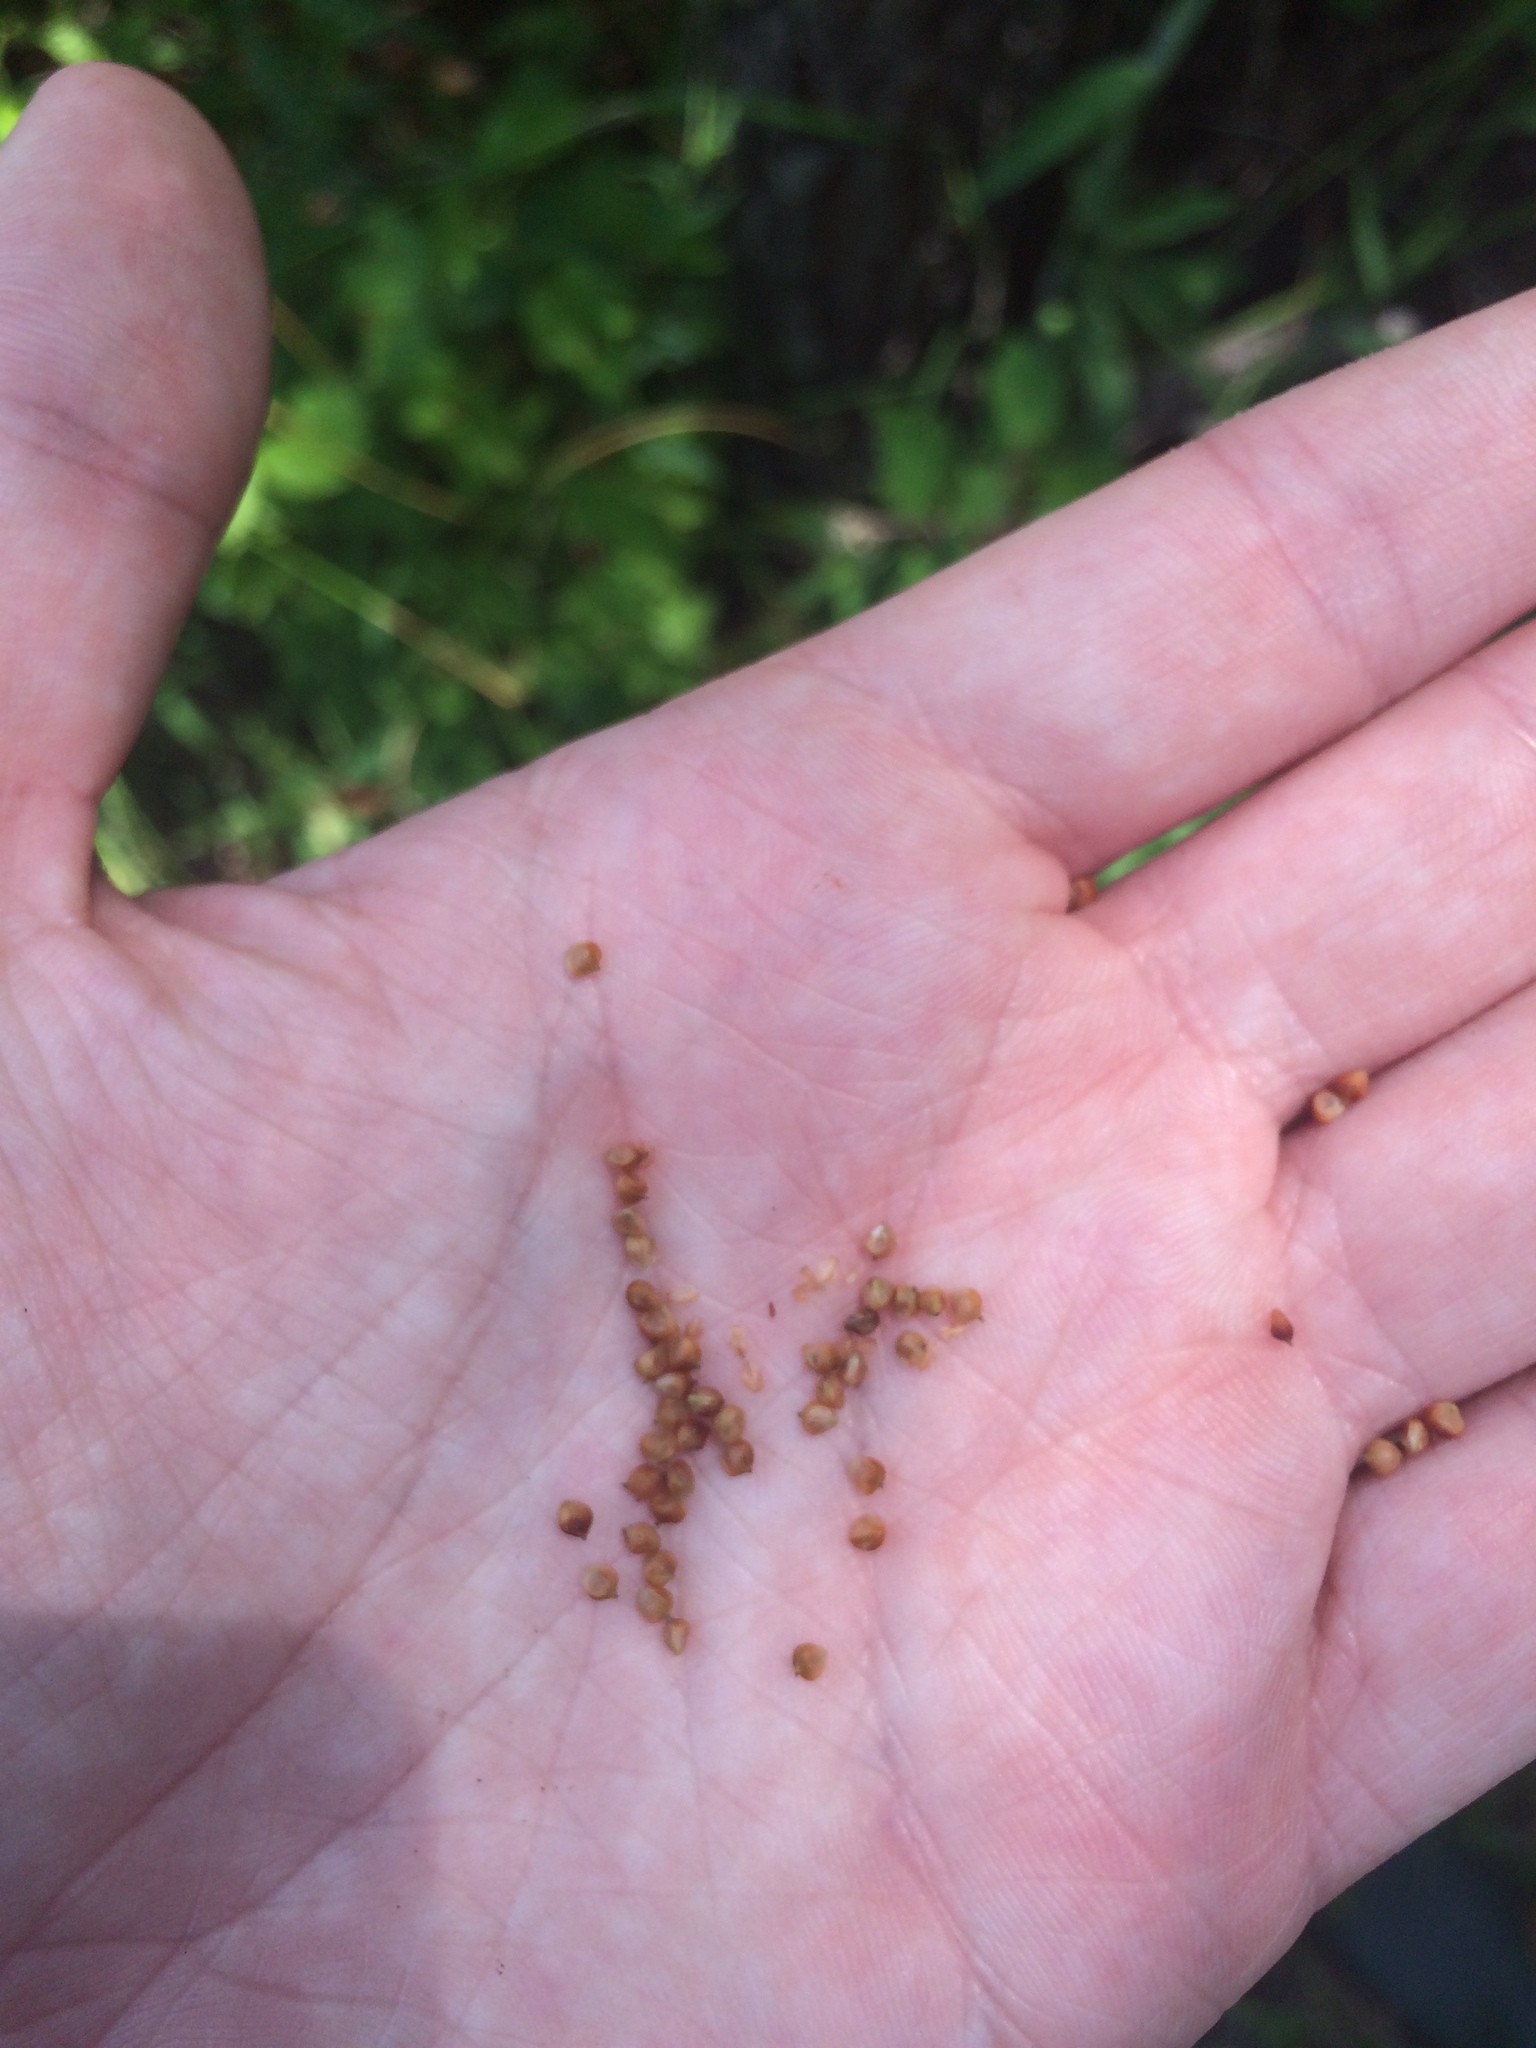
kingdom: Plantae
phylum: Tracheophyta
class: Liliopsida
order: Poales
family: Cyperaceae
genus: Carex
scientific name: Carex caroliniana
